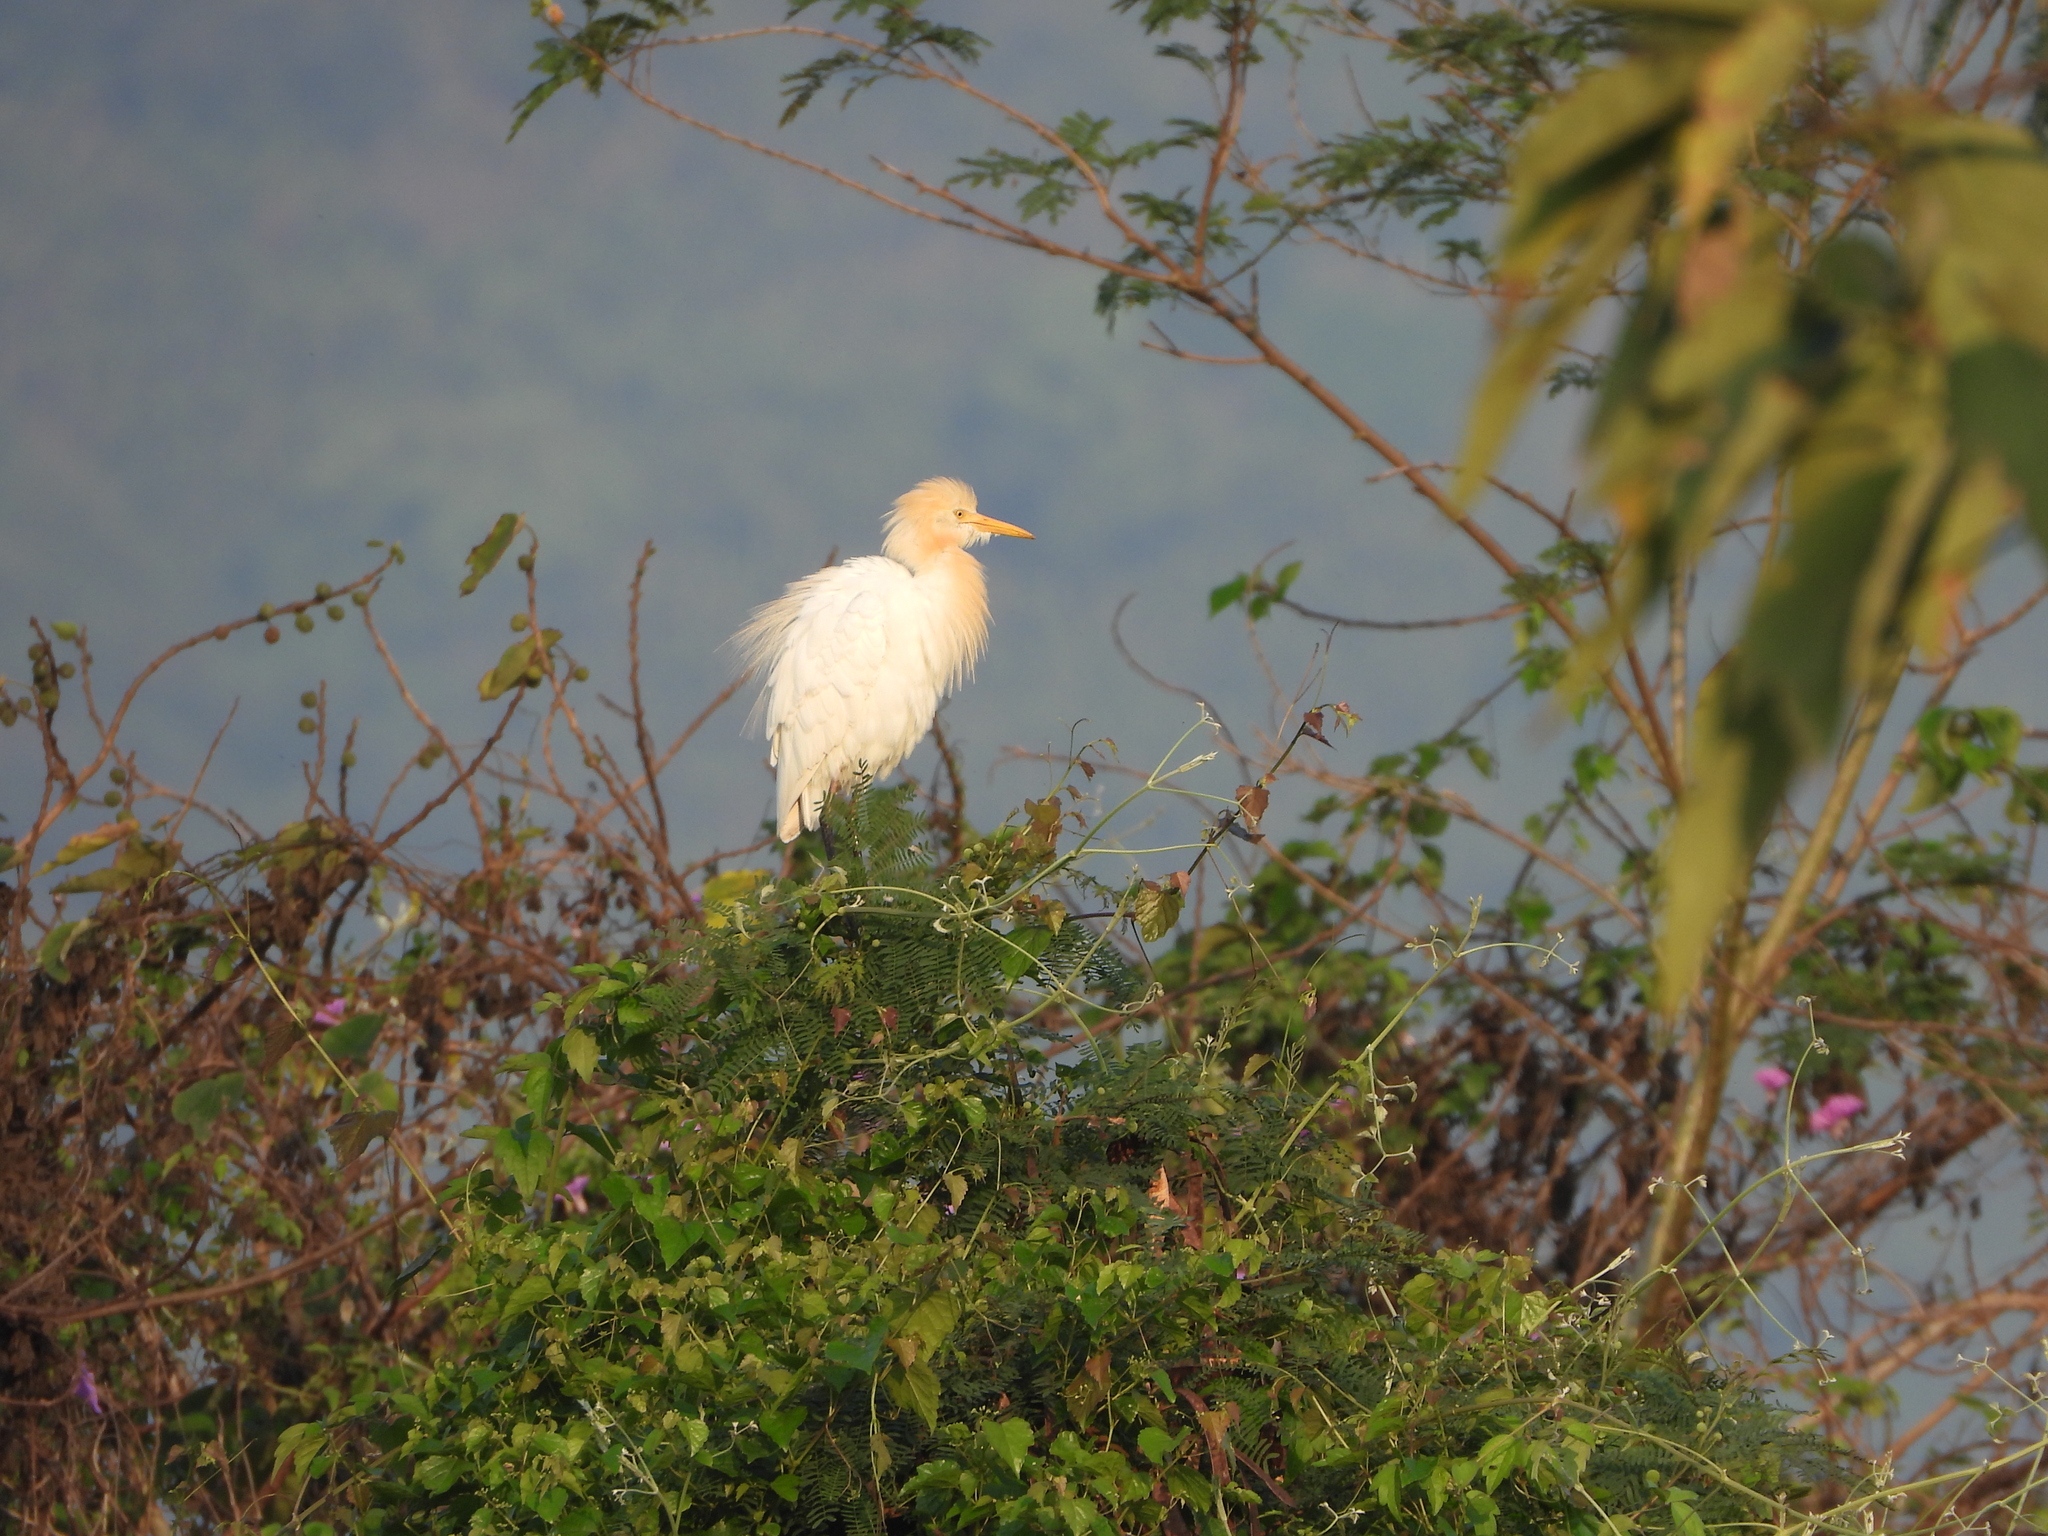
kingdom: Animalia
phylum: Chordata
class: Aves
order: Pelecaniformes
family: Ardeidae
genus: Bubulcus
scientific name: Bubulcus coromandus
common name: Eastern cattle egret
